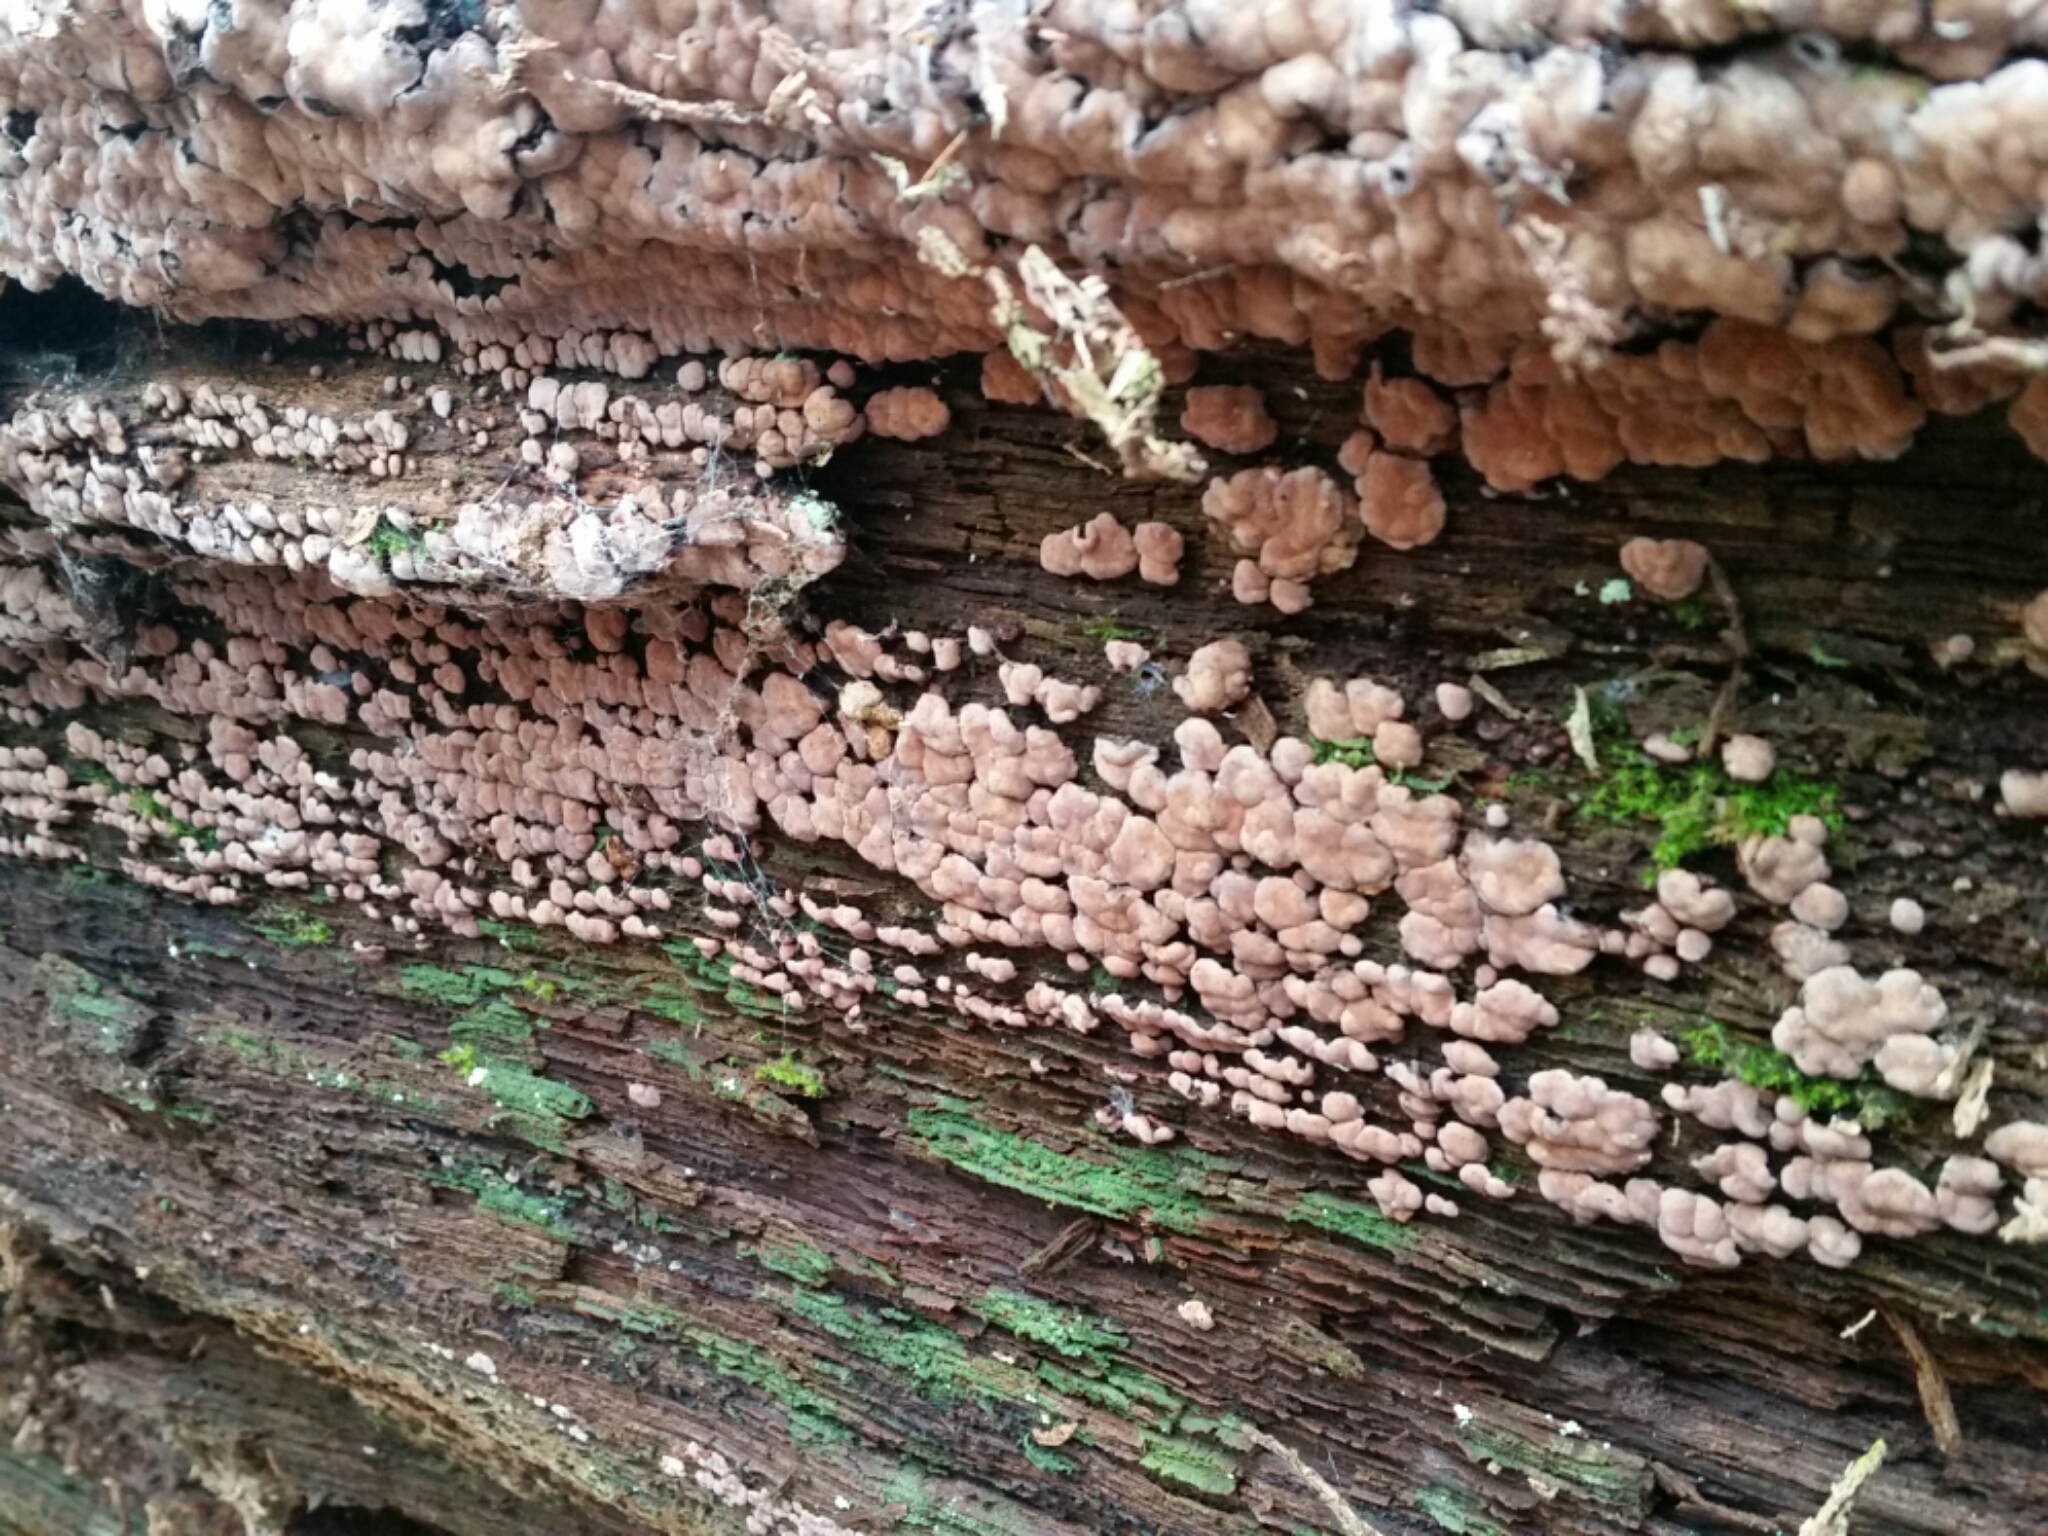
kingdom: Fungi
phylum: Basidiomycota
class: Agaricomycetes
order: Russulales
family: Stereaceae
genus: Xylobolus
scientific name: Xylobolus frustulatus
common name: Ceramic parchment
